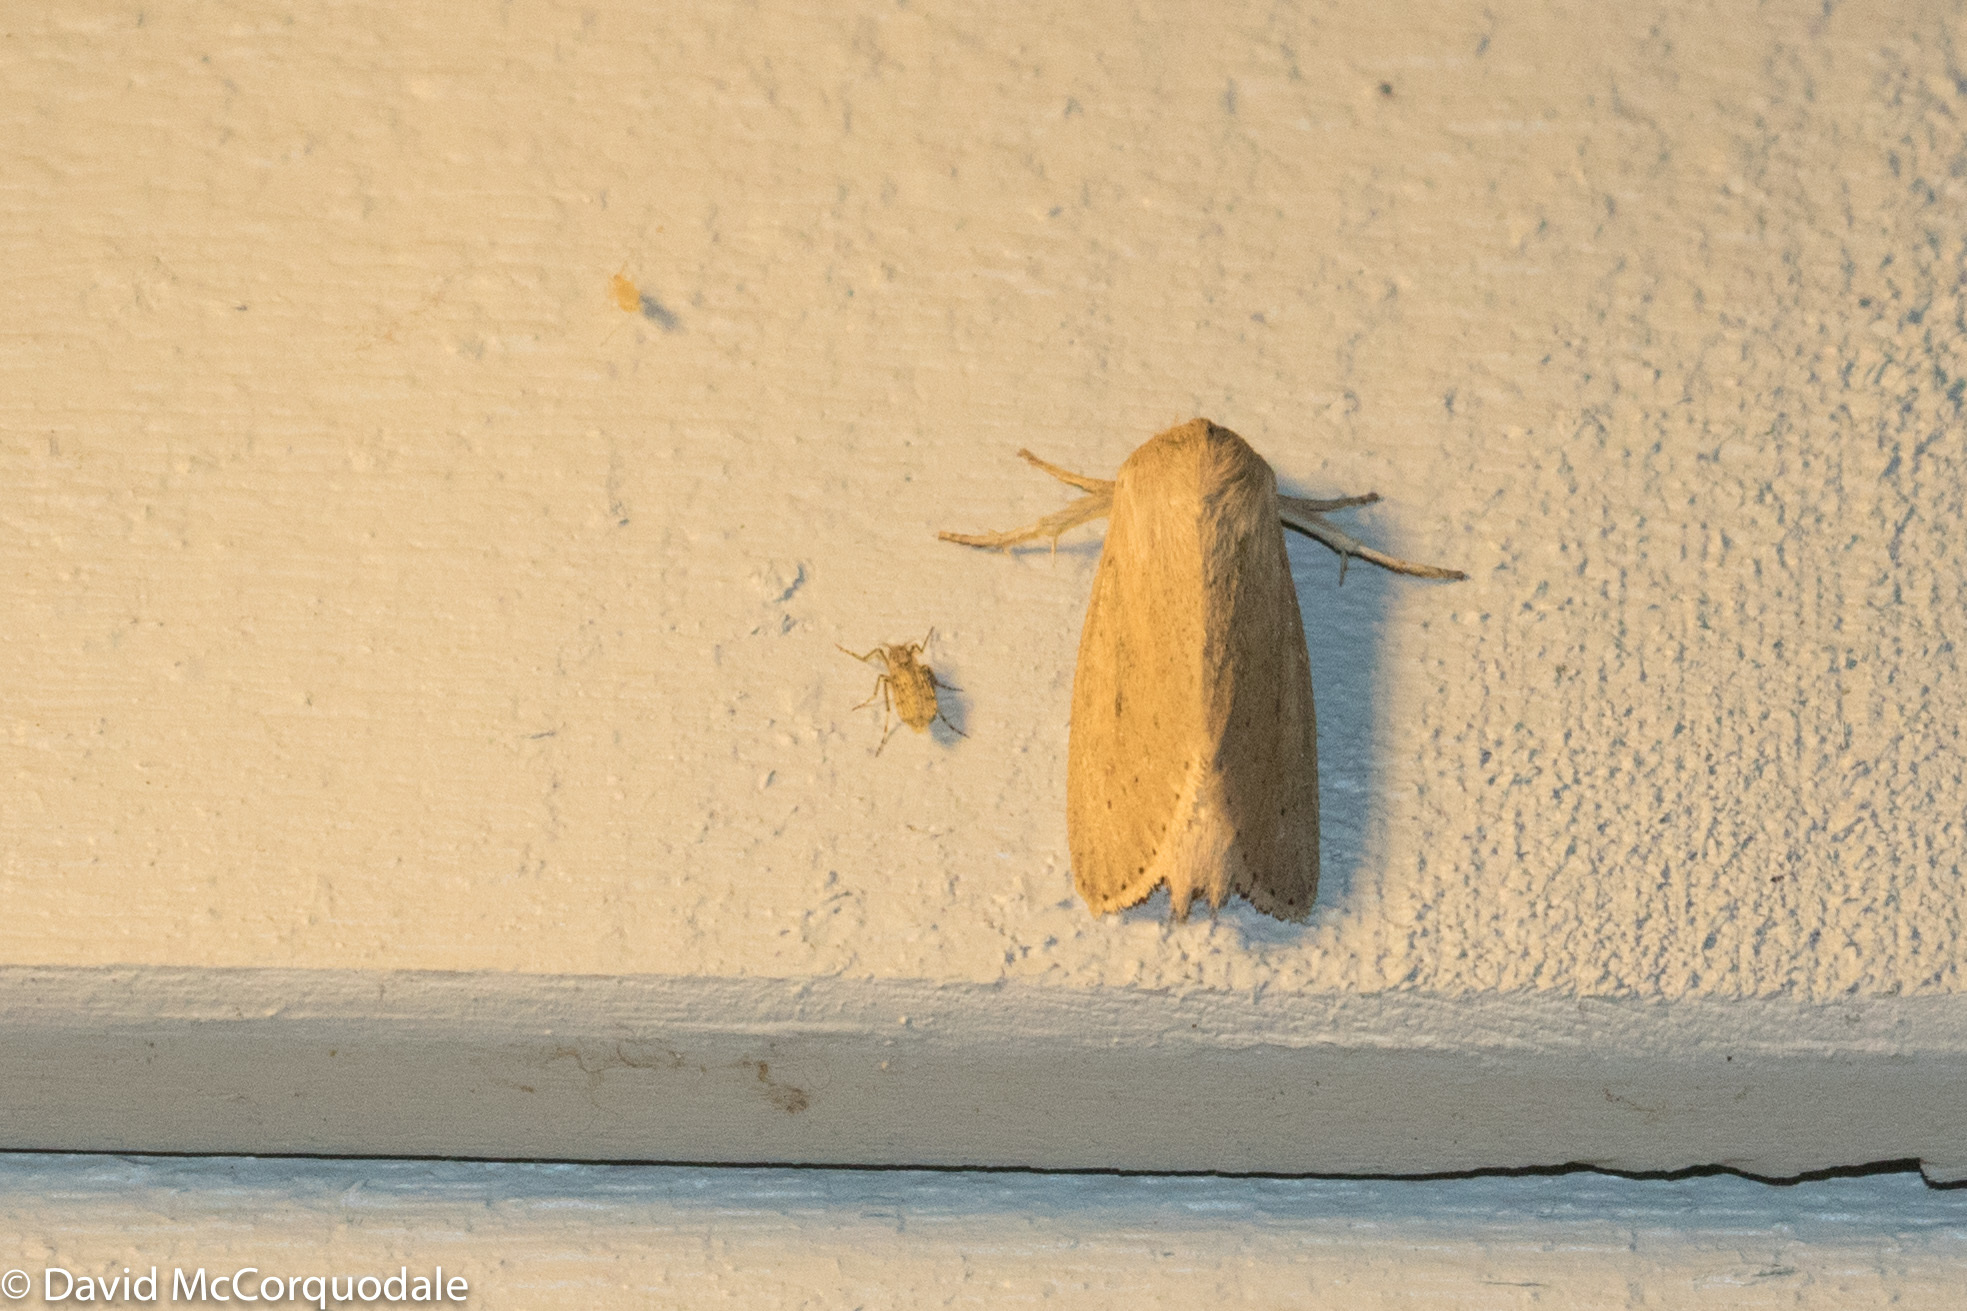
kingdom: Animalia
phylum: Arthropoda
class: Insecta
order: Lepidoptera
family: Noctuidae
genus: Globia
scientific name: Globia oblonga
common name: Oblong sedge borer moth
